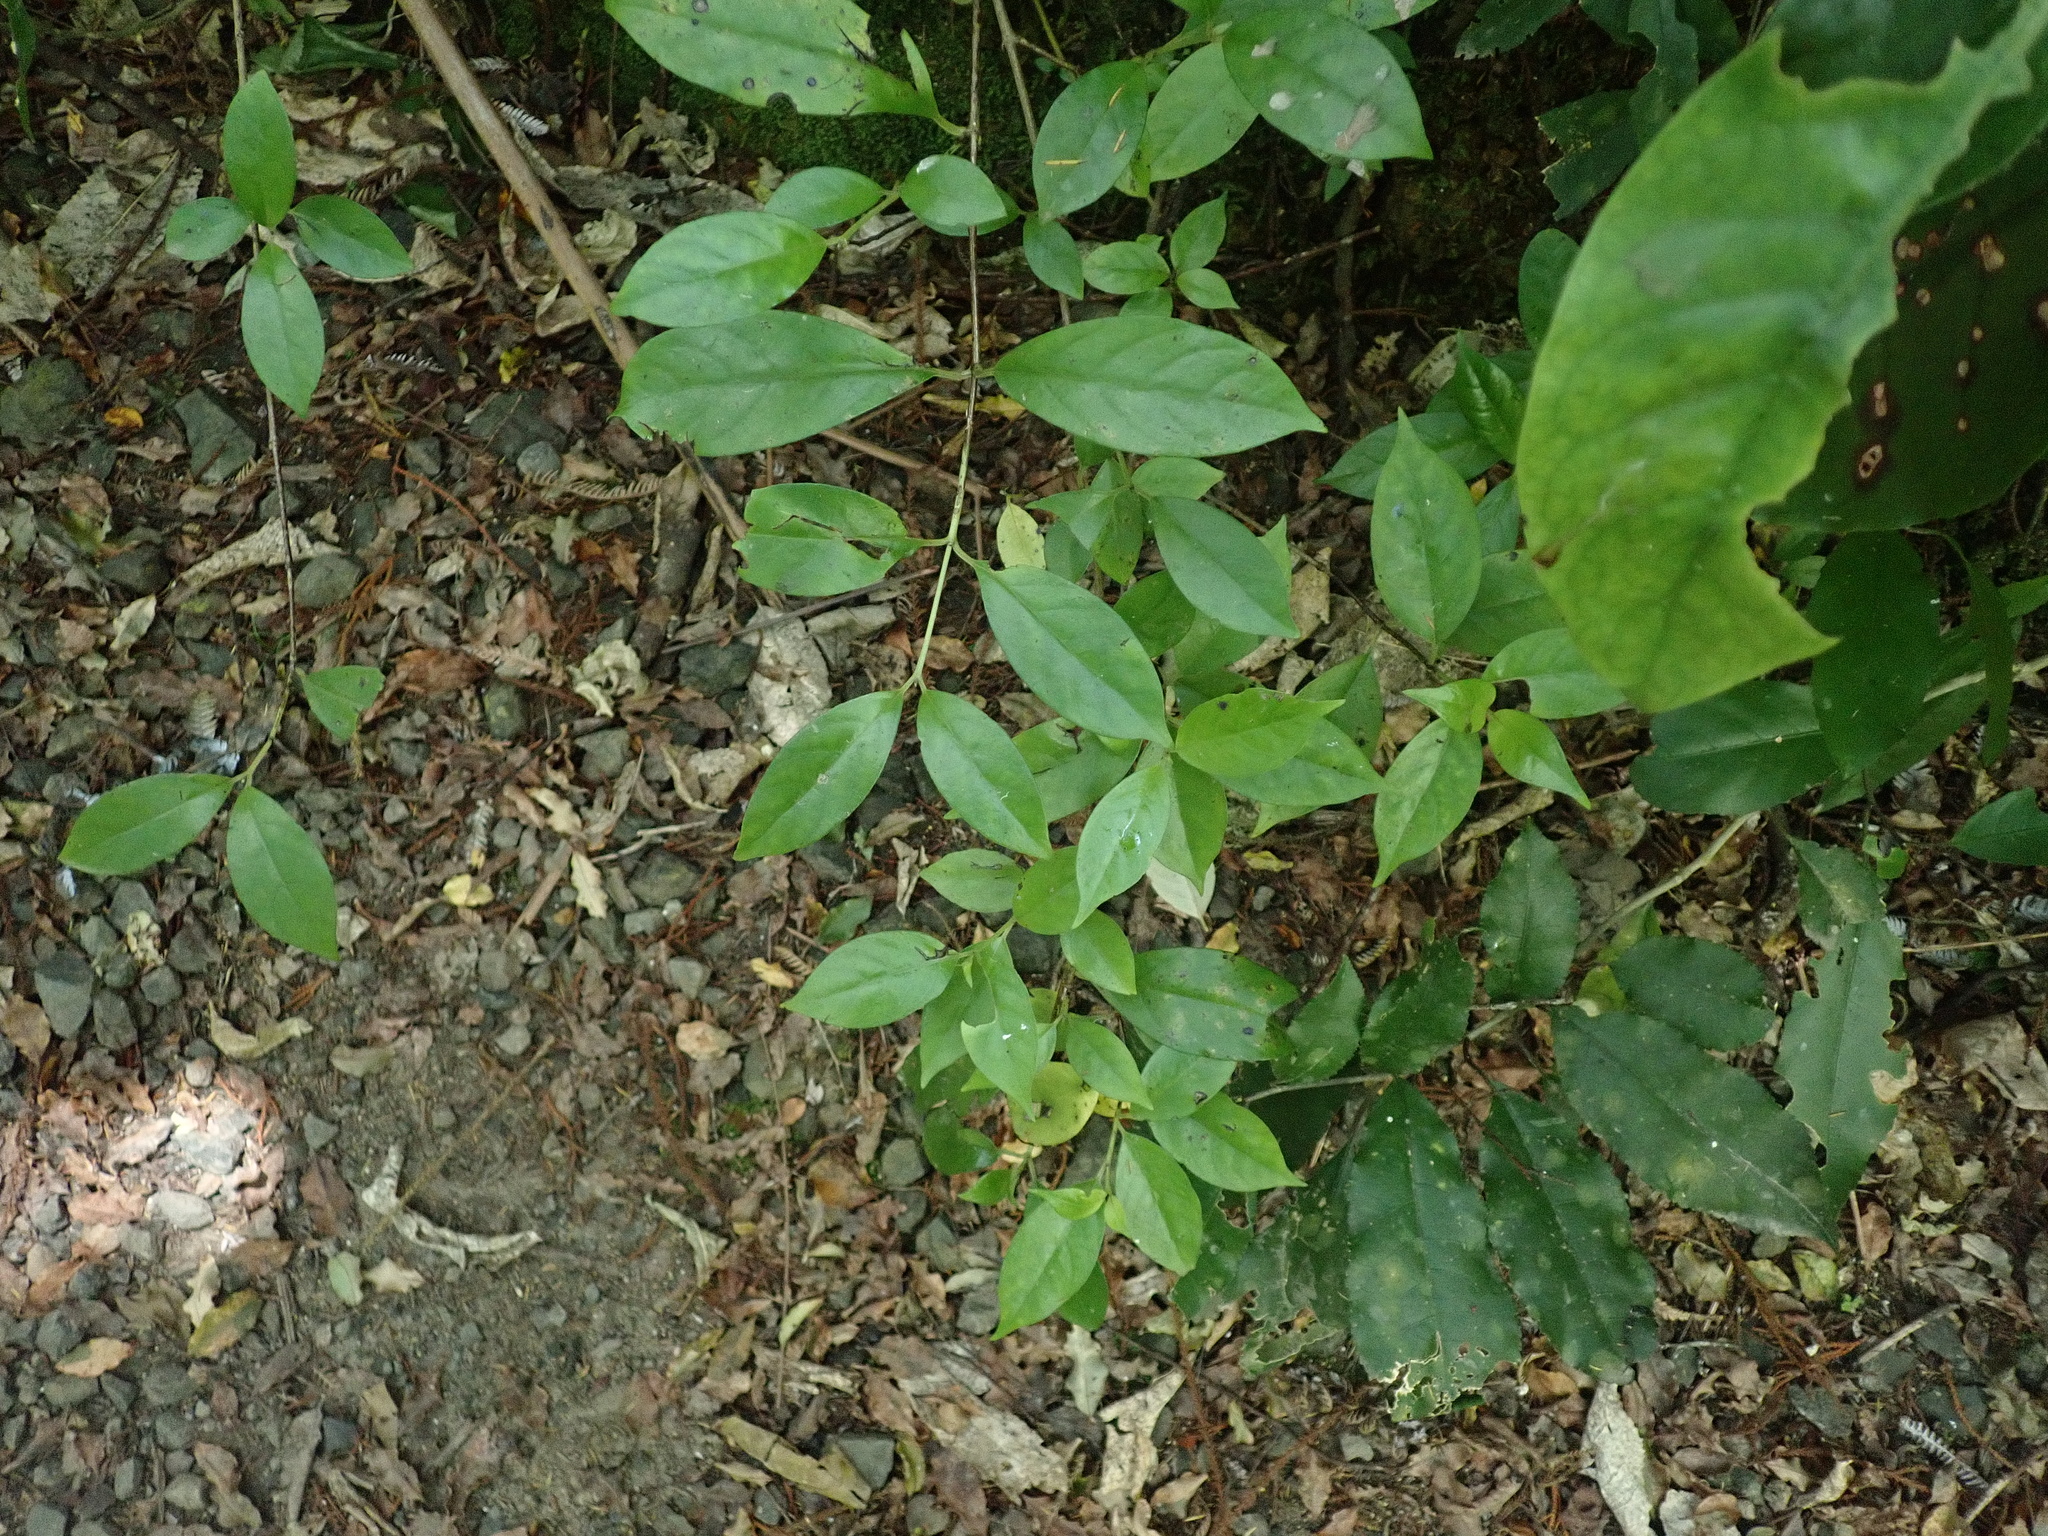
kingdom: Plantae
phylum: Tracheophyta
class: Magnoliopsida
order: Gentianales
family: Loganiaceae
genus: Geniostoma
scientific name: Geniostoma ligustrifolium
